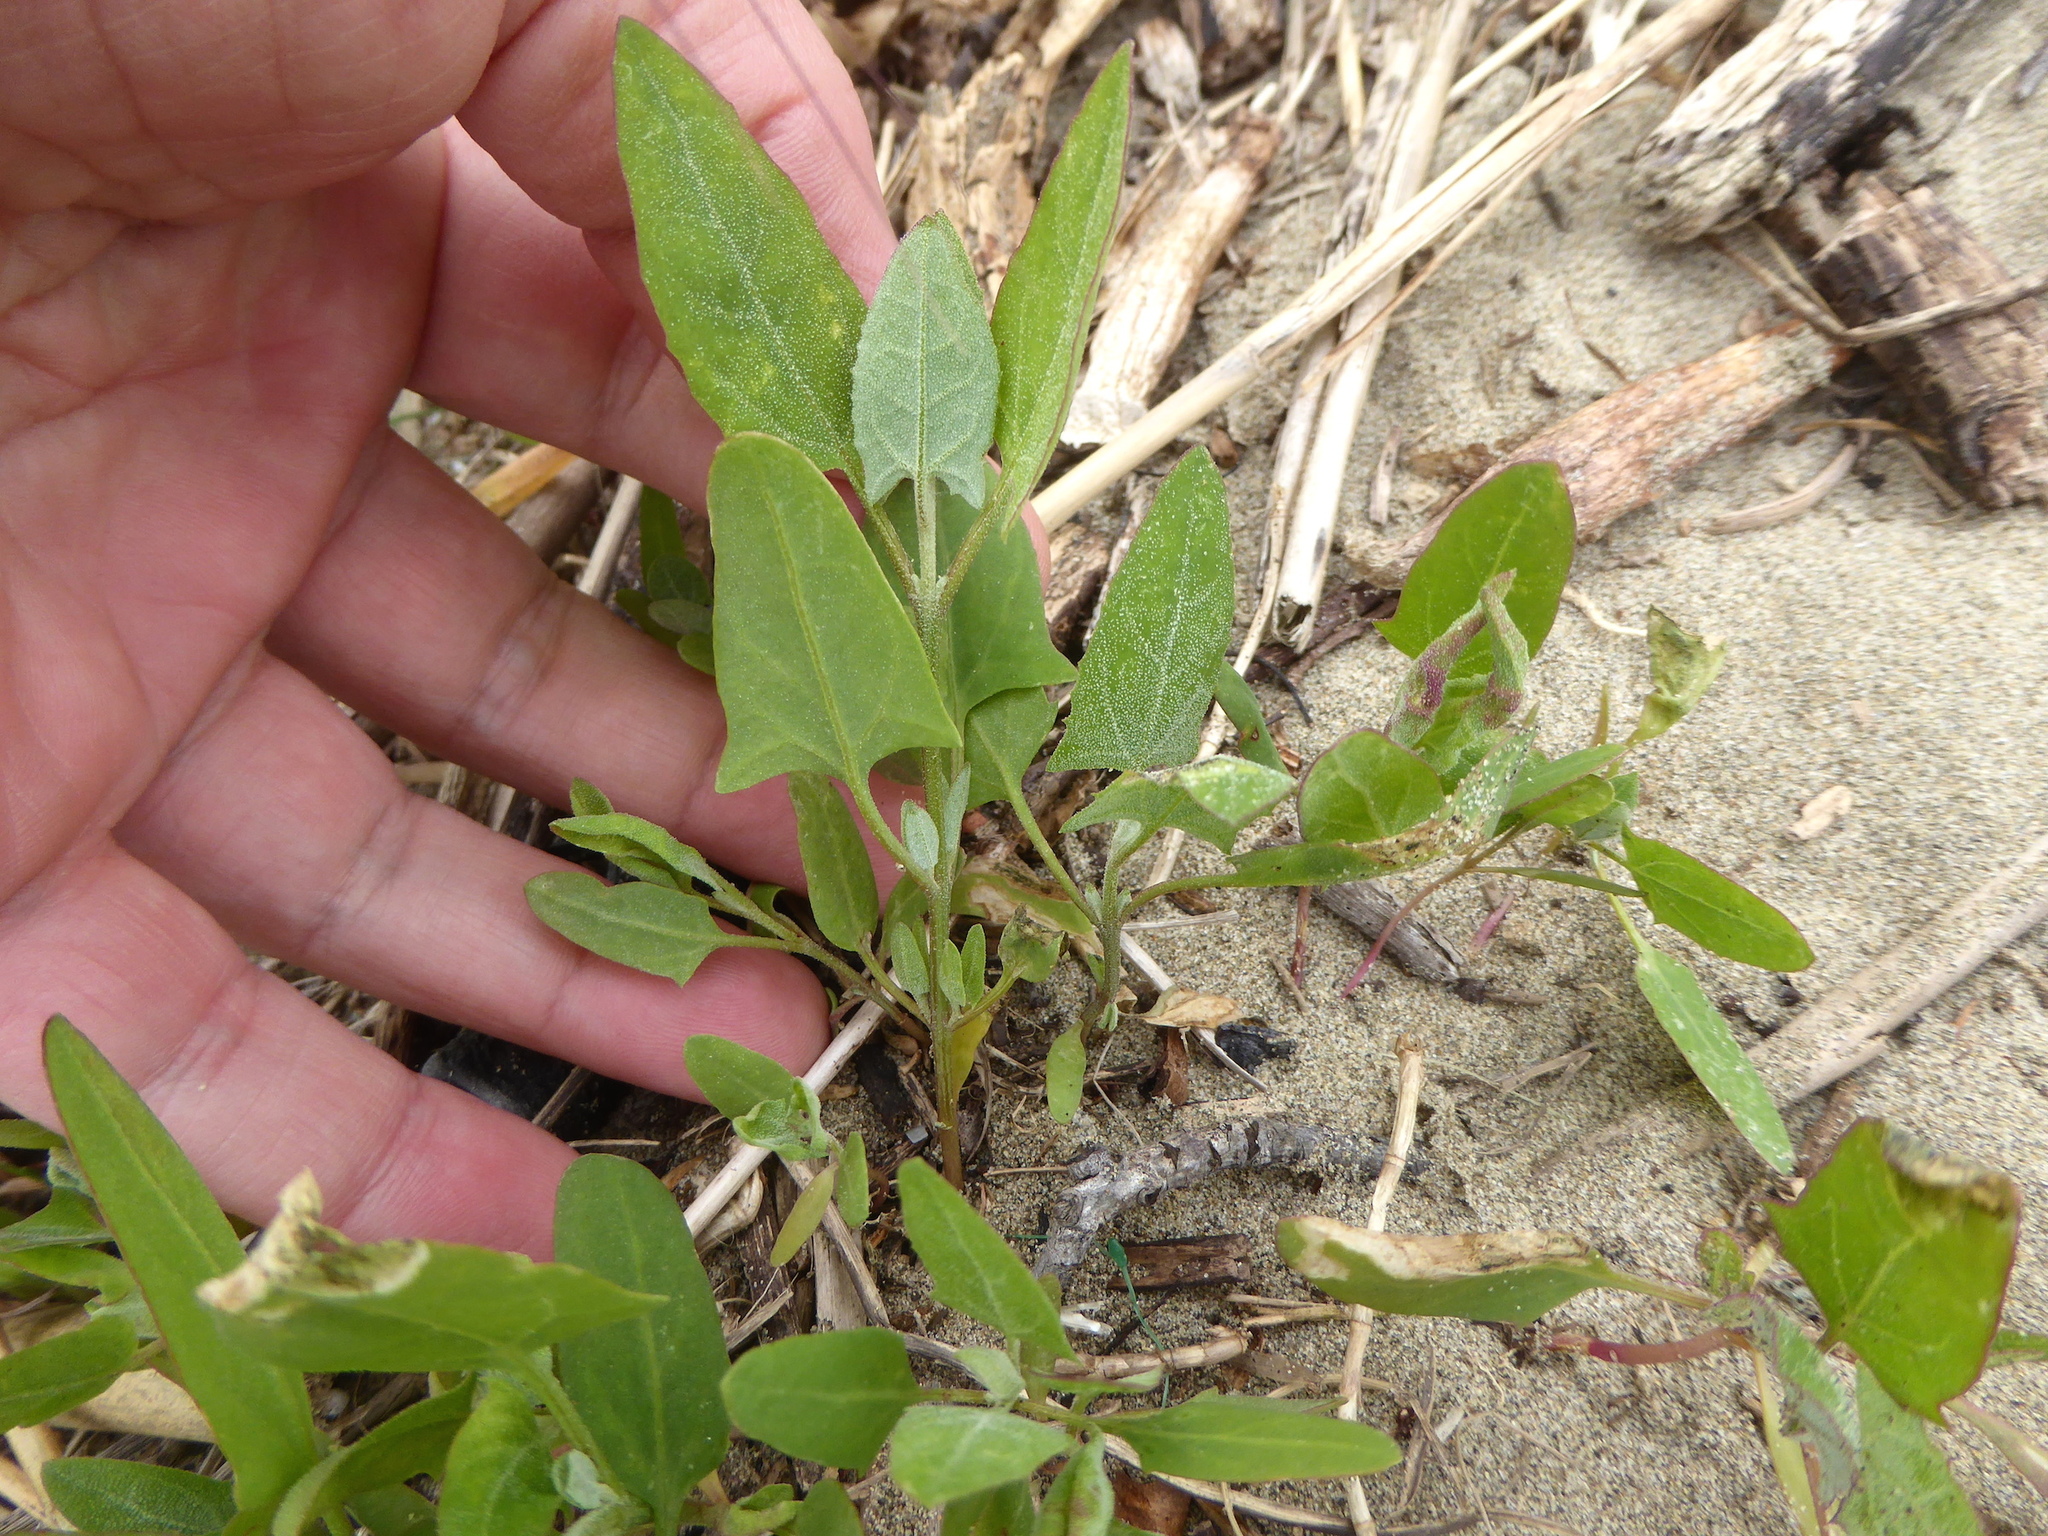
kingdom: Plantae
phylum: Tracheophyta
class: Magnoliopsida
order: Caryophyllales
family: Amaranthaceae
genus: Atriplex
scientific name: Atriplex prostrata
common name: Spear-leaved orache
